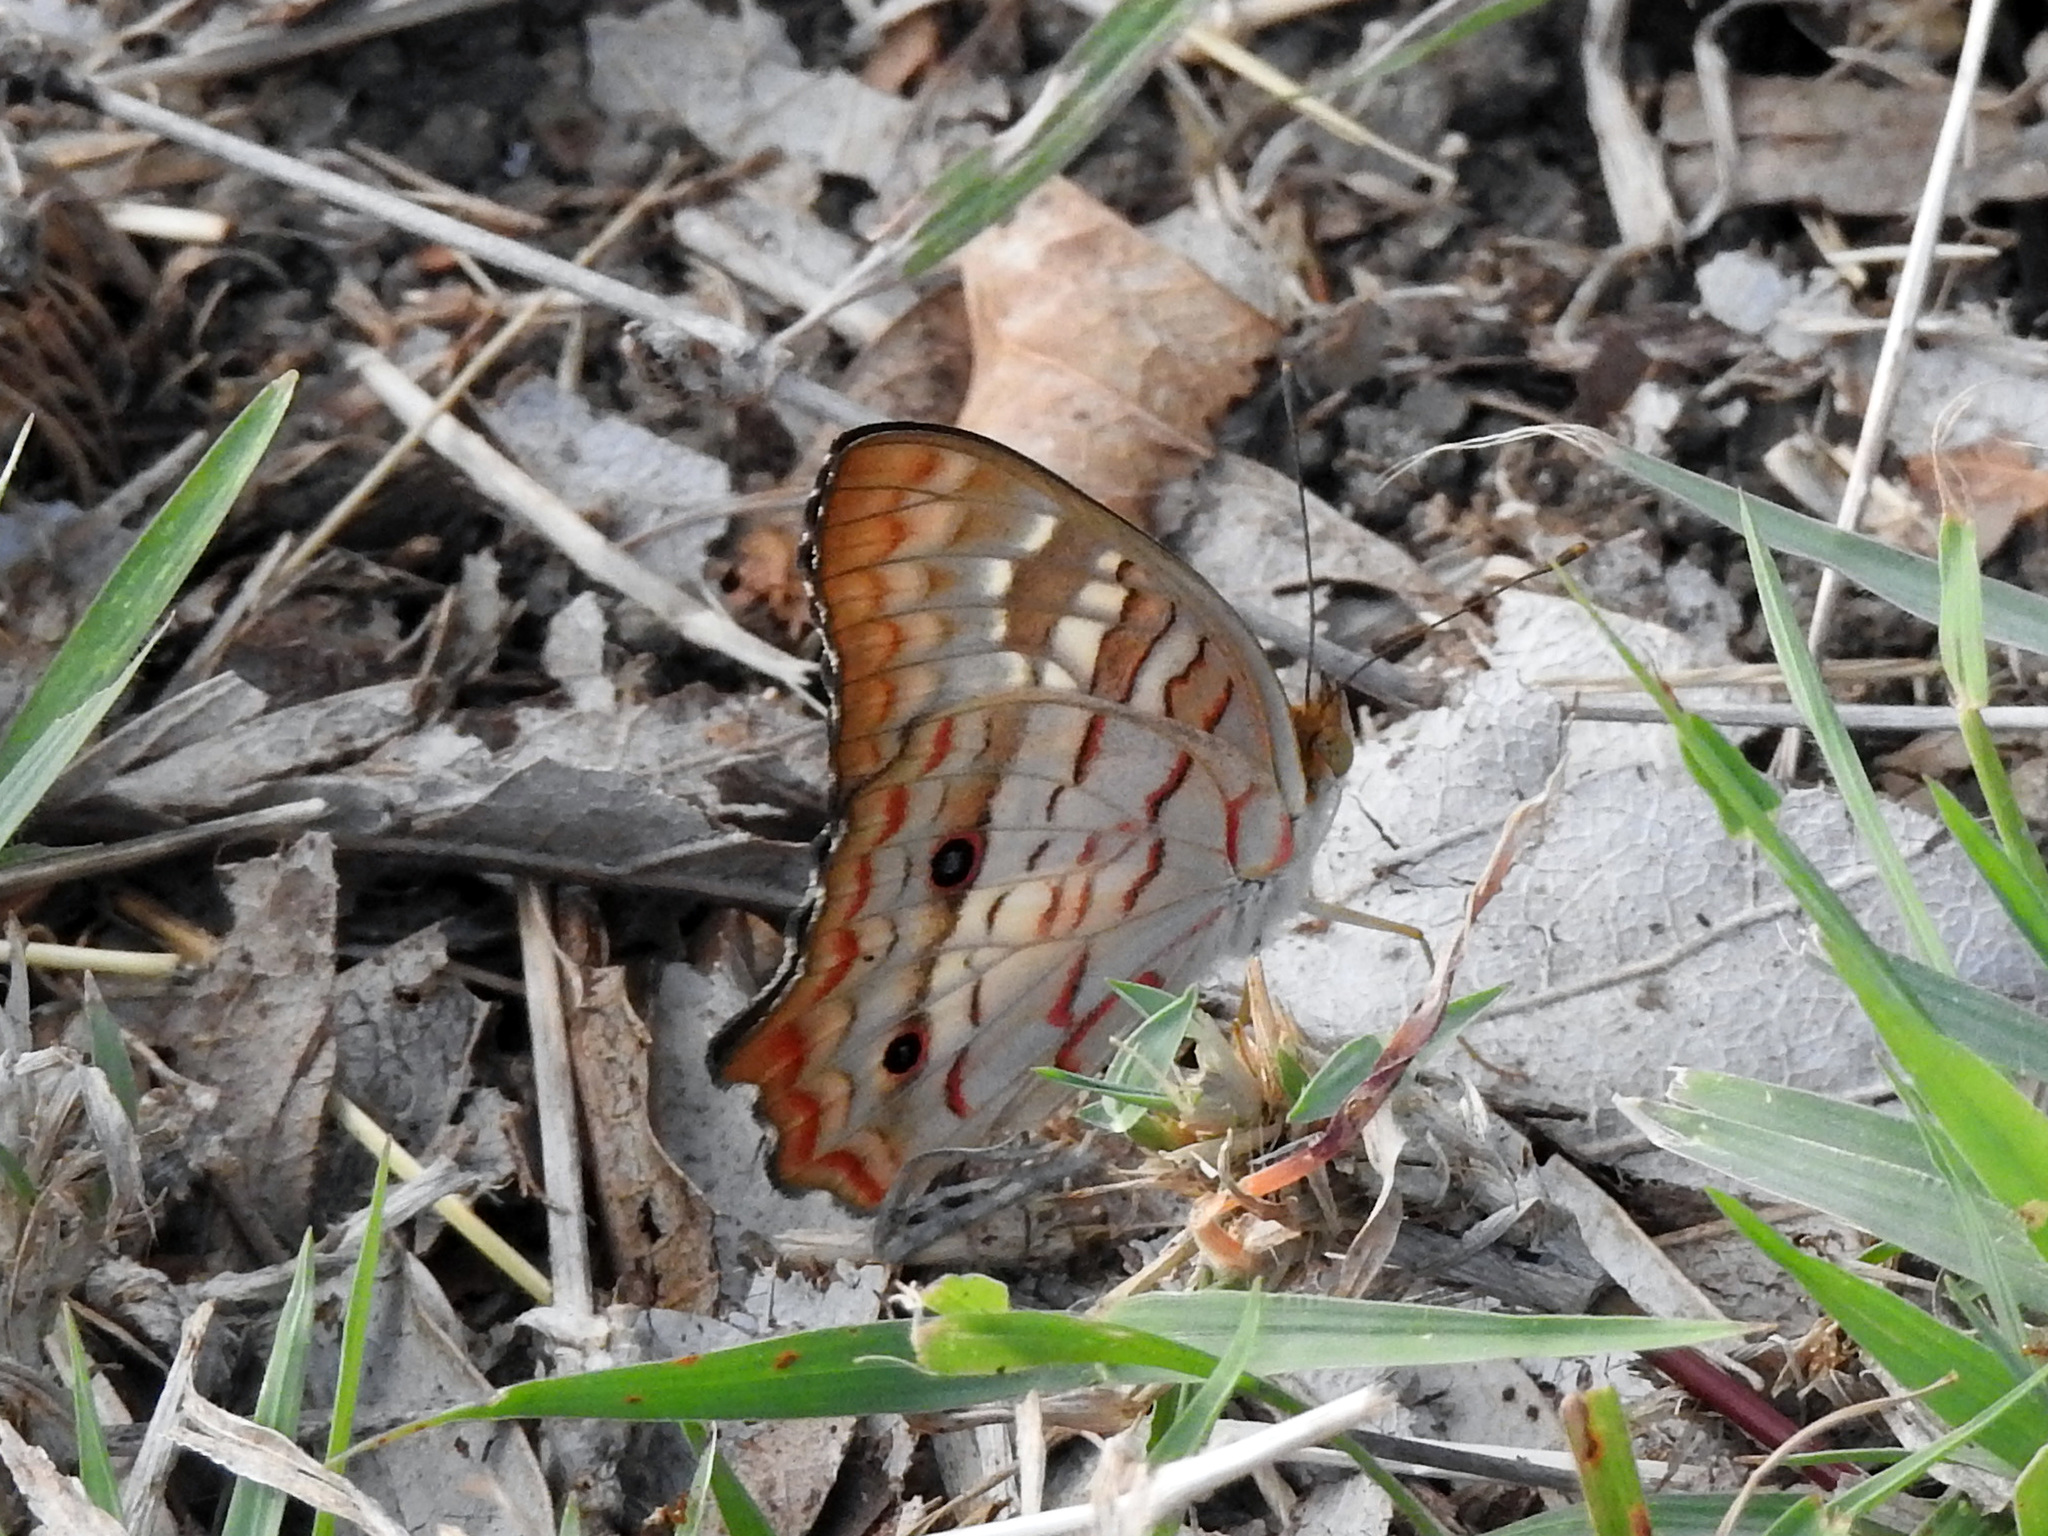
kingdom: Animalia
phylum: Arthropoda
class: Insecta
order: Lepidoptera
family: Nymphalidae
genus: Anartia
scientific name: Anartia jatrophae
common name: White peacock
